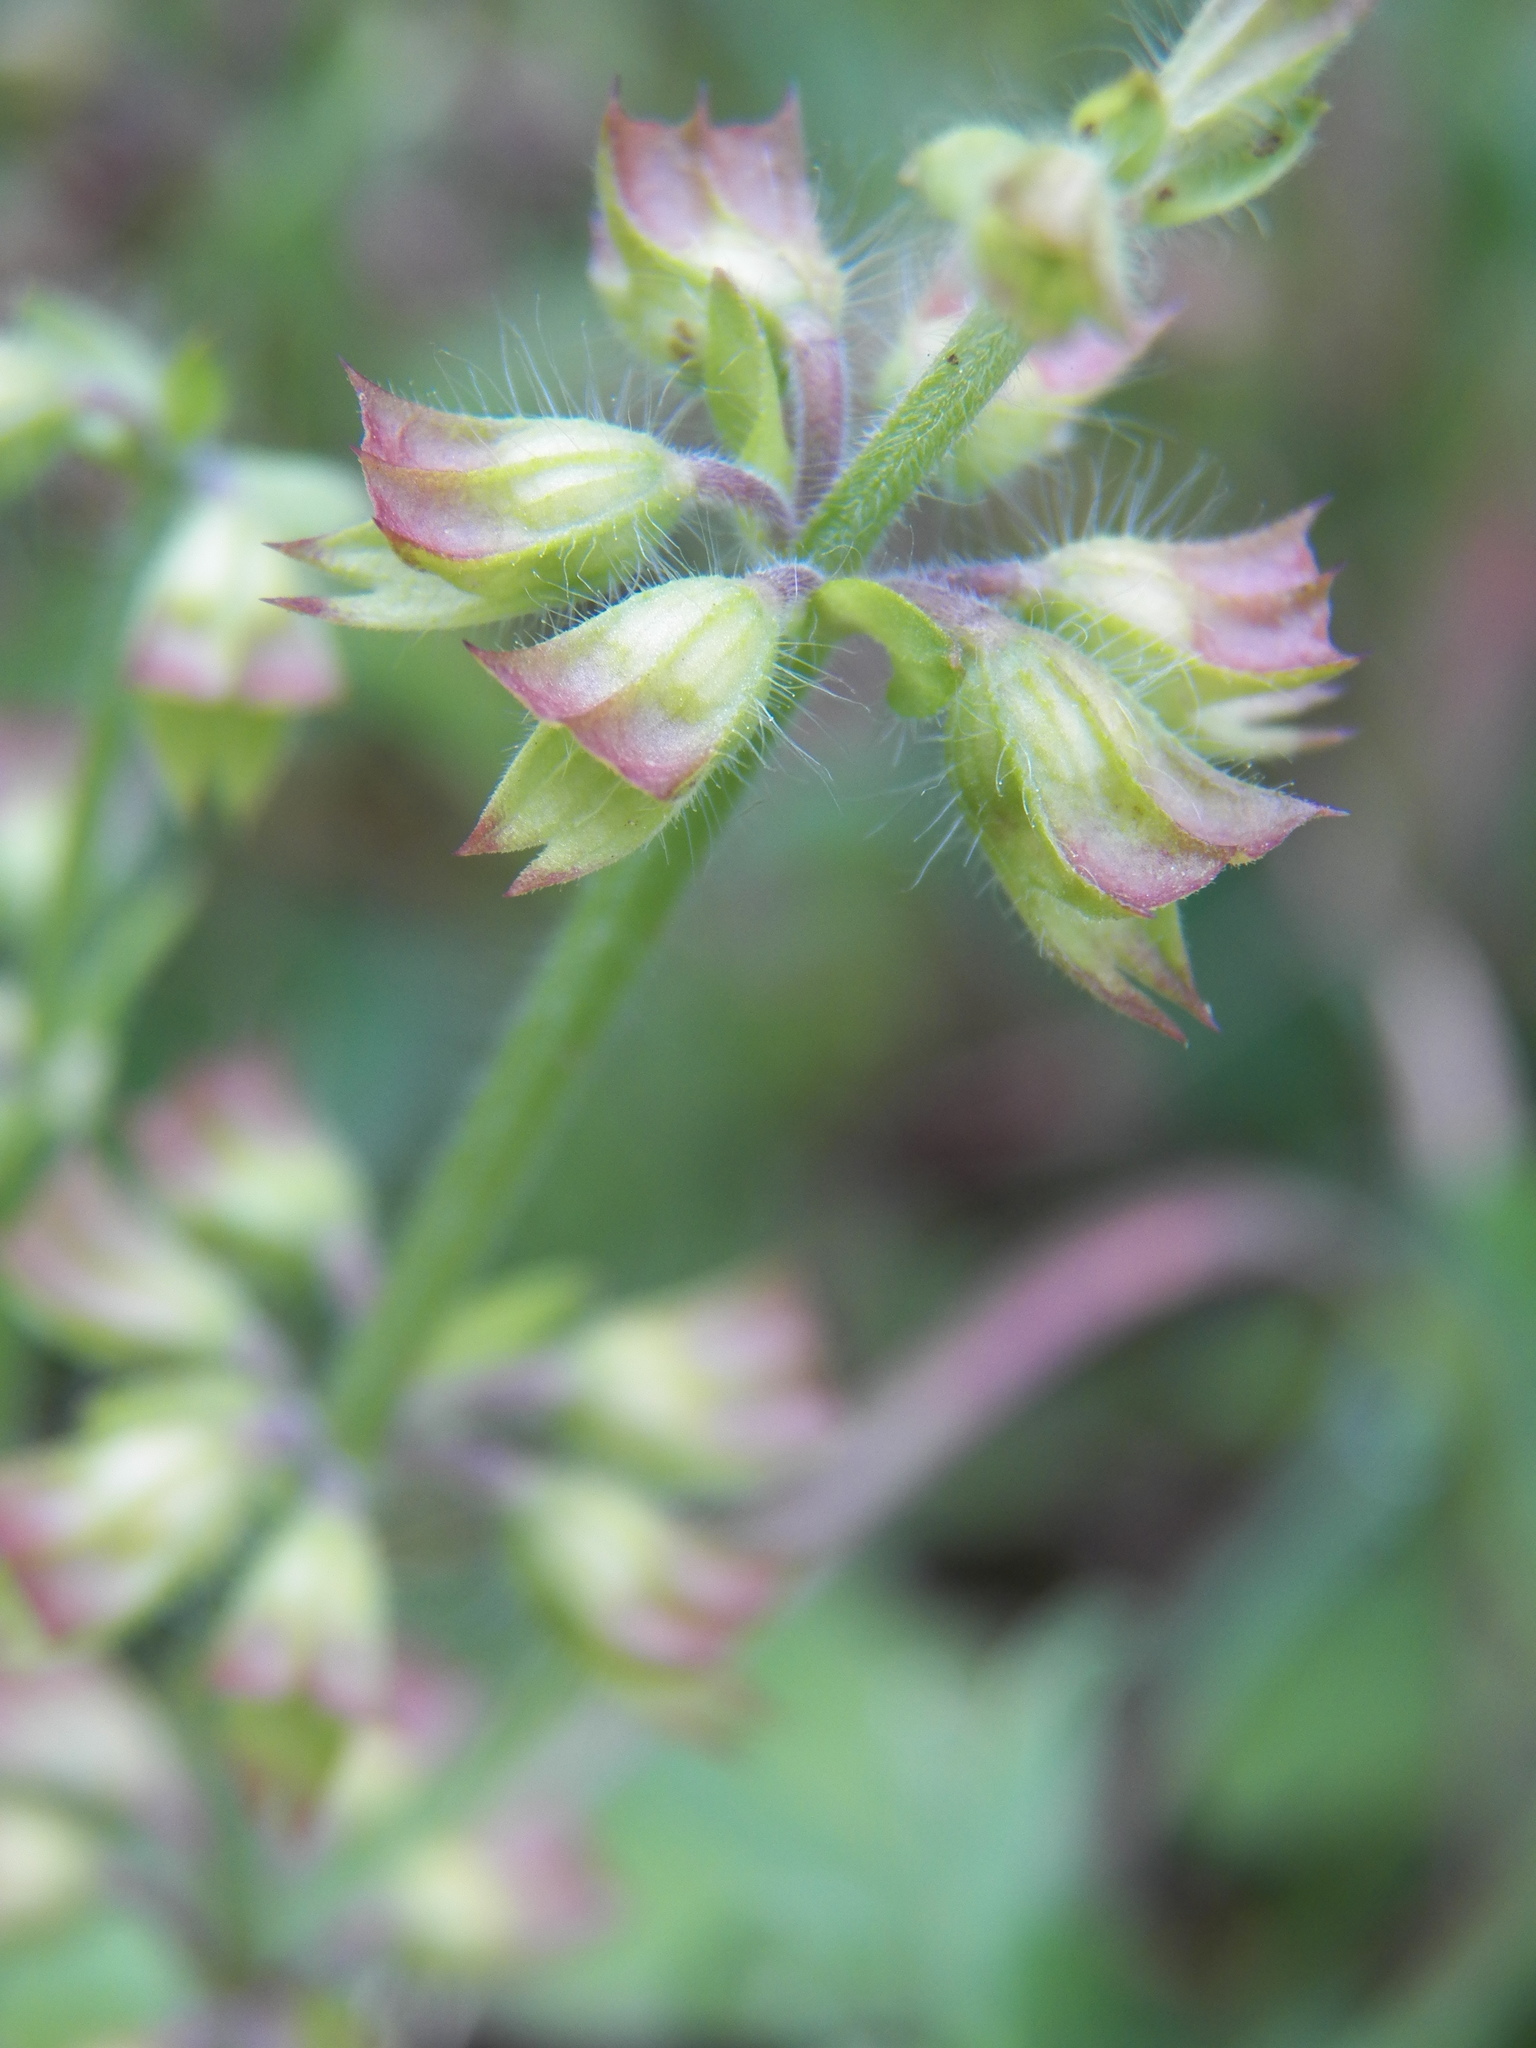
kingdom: Plantae
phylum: Tracheophyta
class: Magnoliopsida
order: Lamiales
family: Lamiaceae
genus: Salvia
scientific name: Salvia lyrata
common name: Cancerweed
